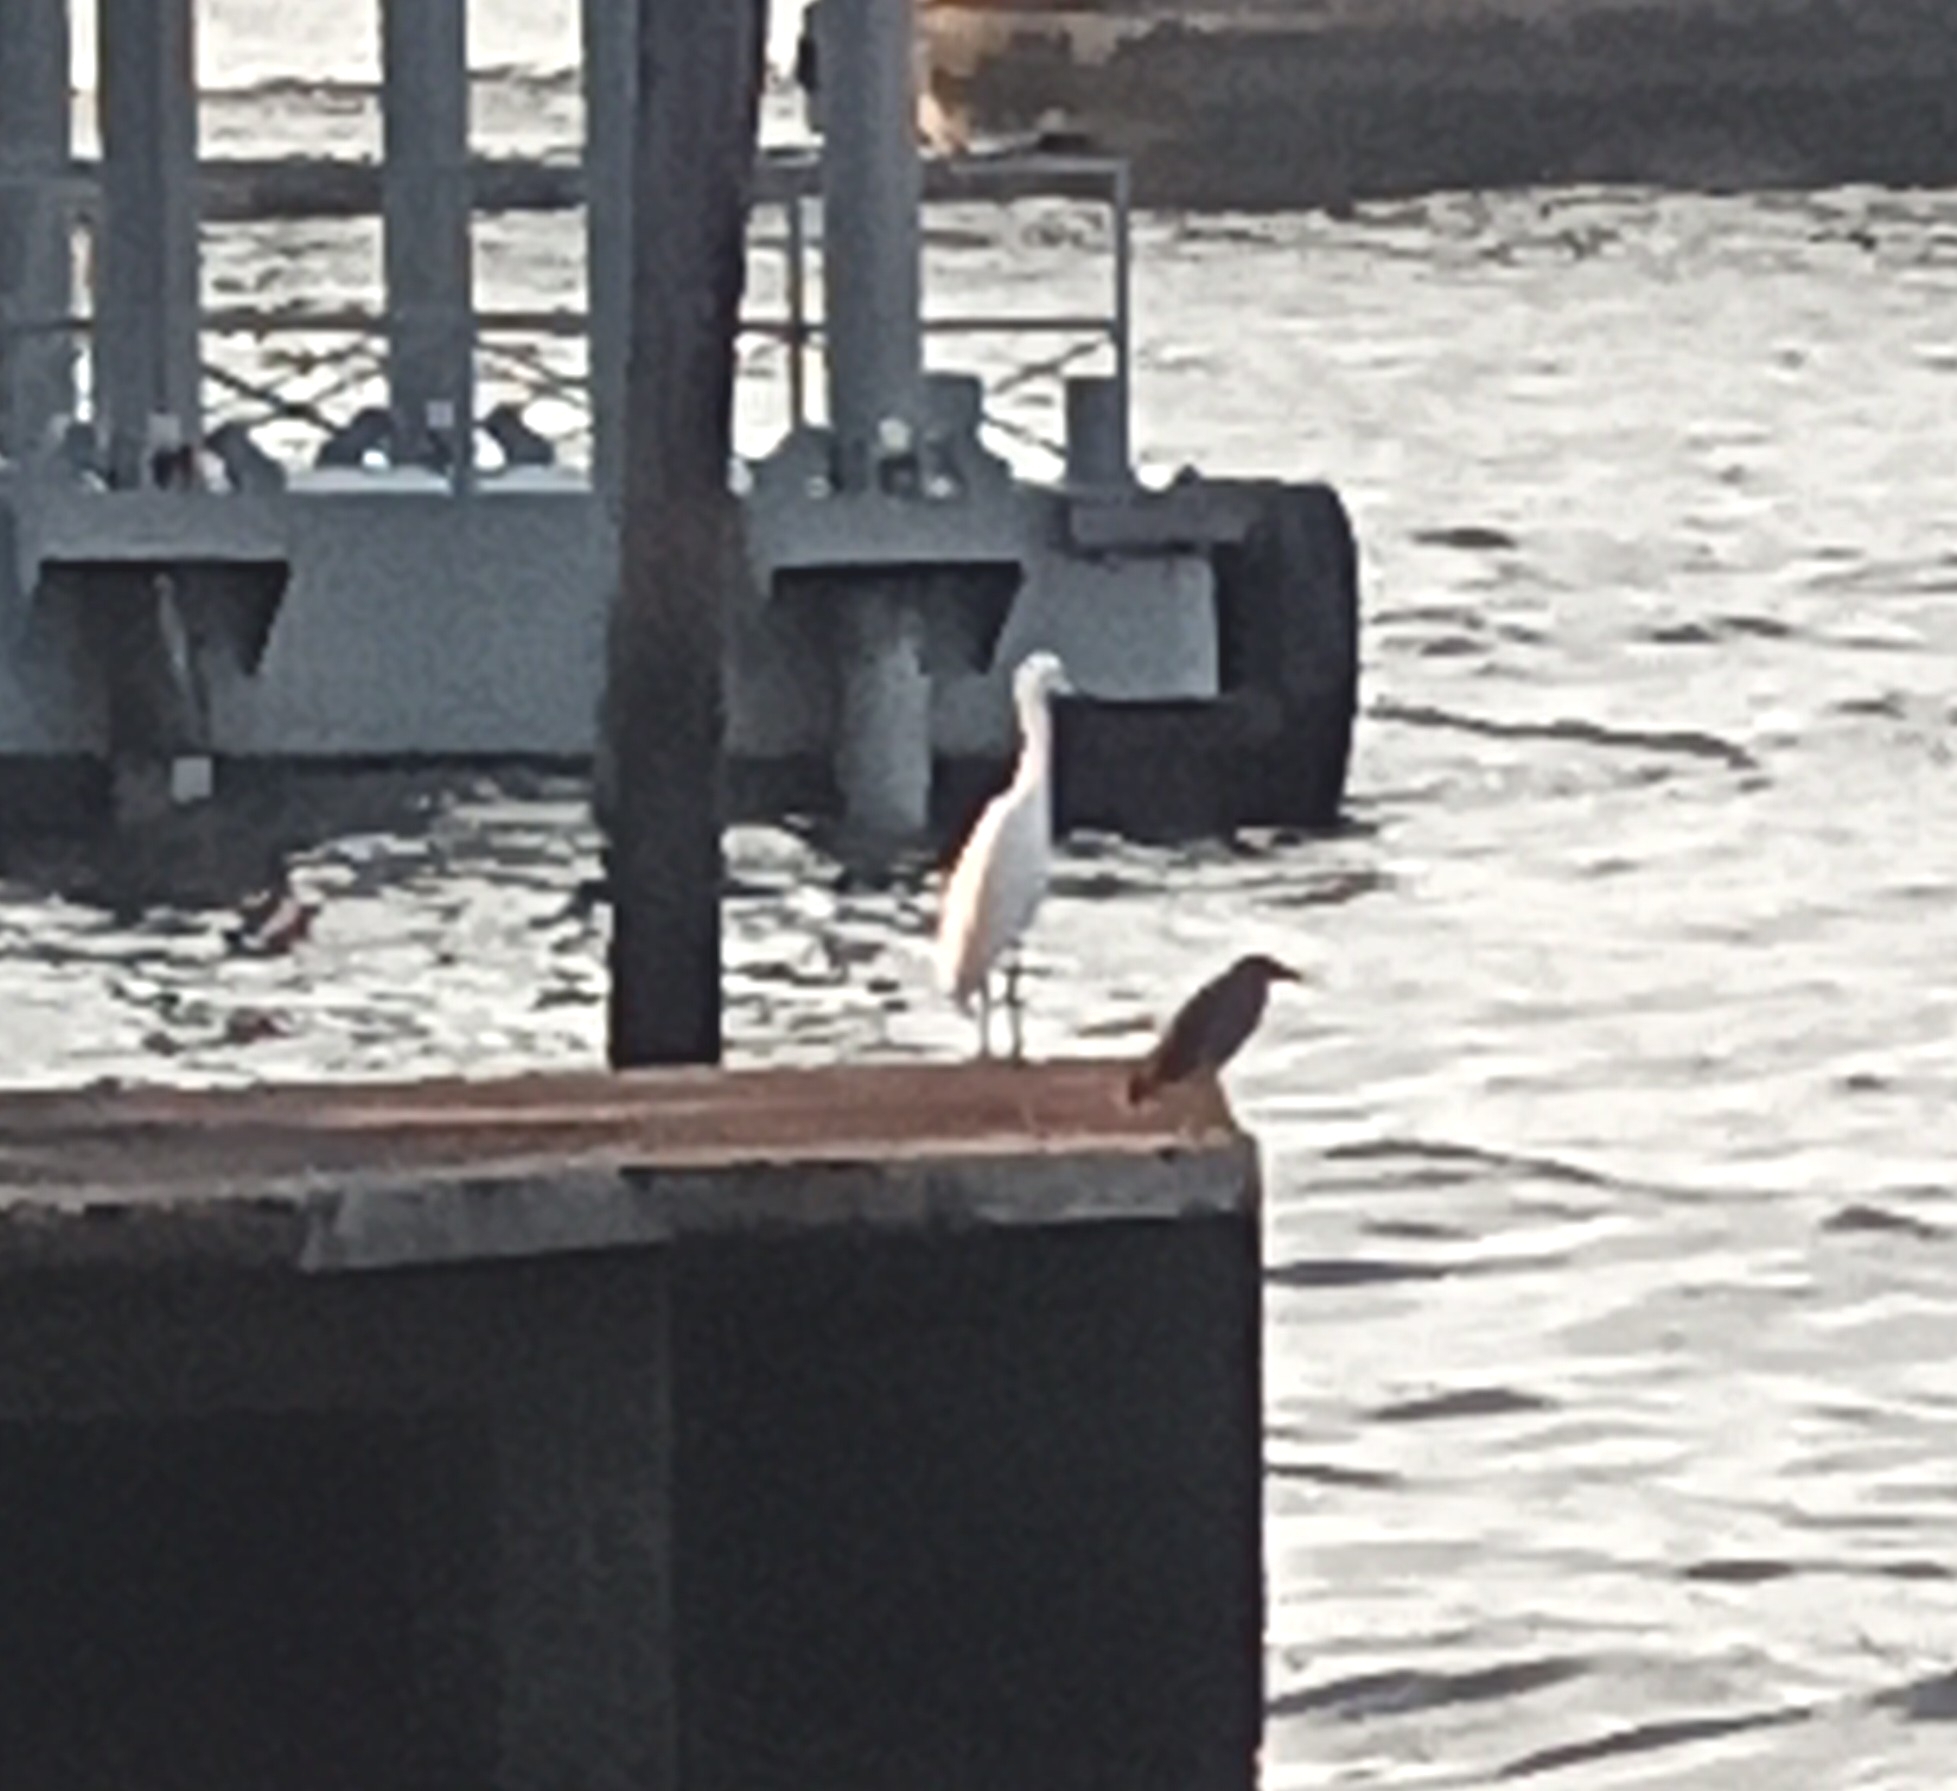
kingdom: Animalia
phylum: Chordata
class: Aves
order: Pelecaniformes
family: Ardeidae
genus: Butorides
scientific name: Butorides striata
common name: Striated heron
